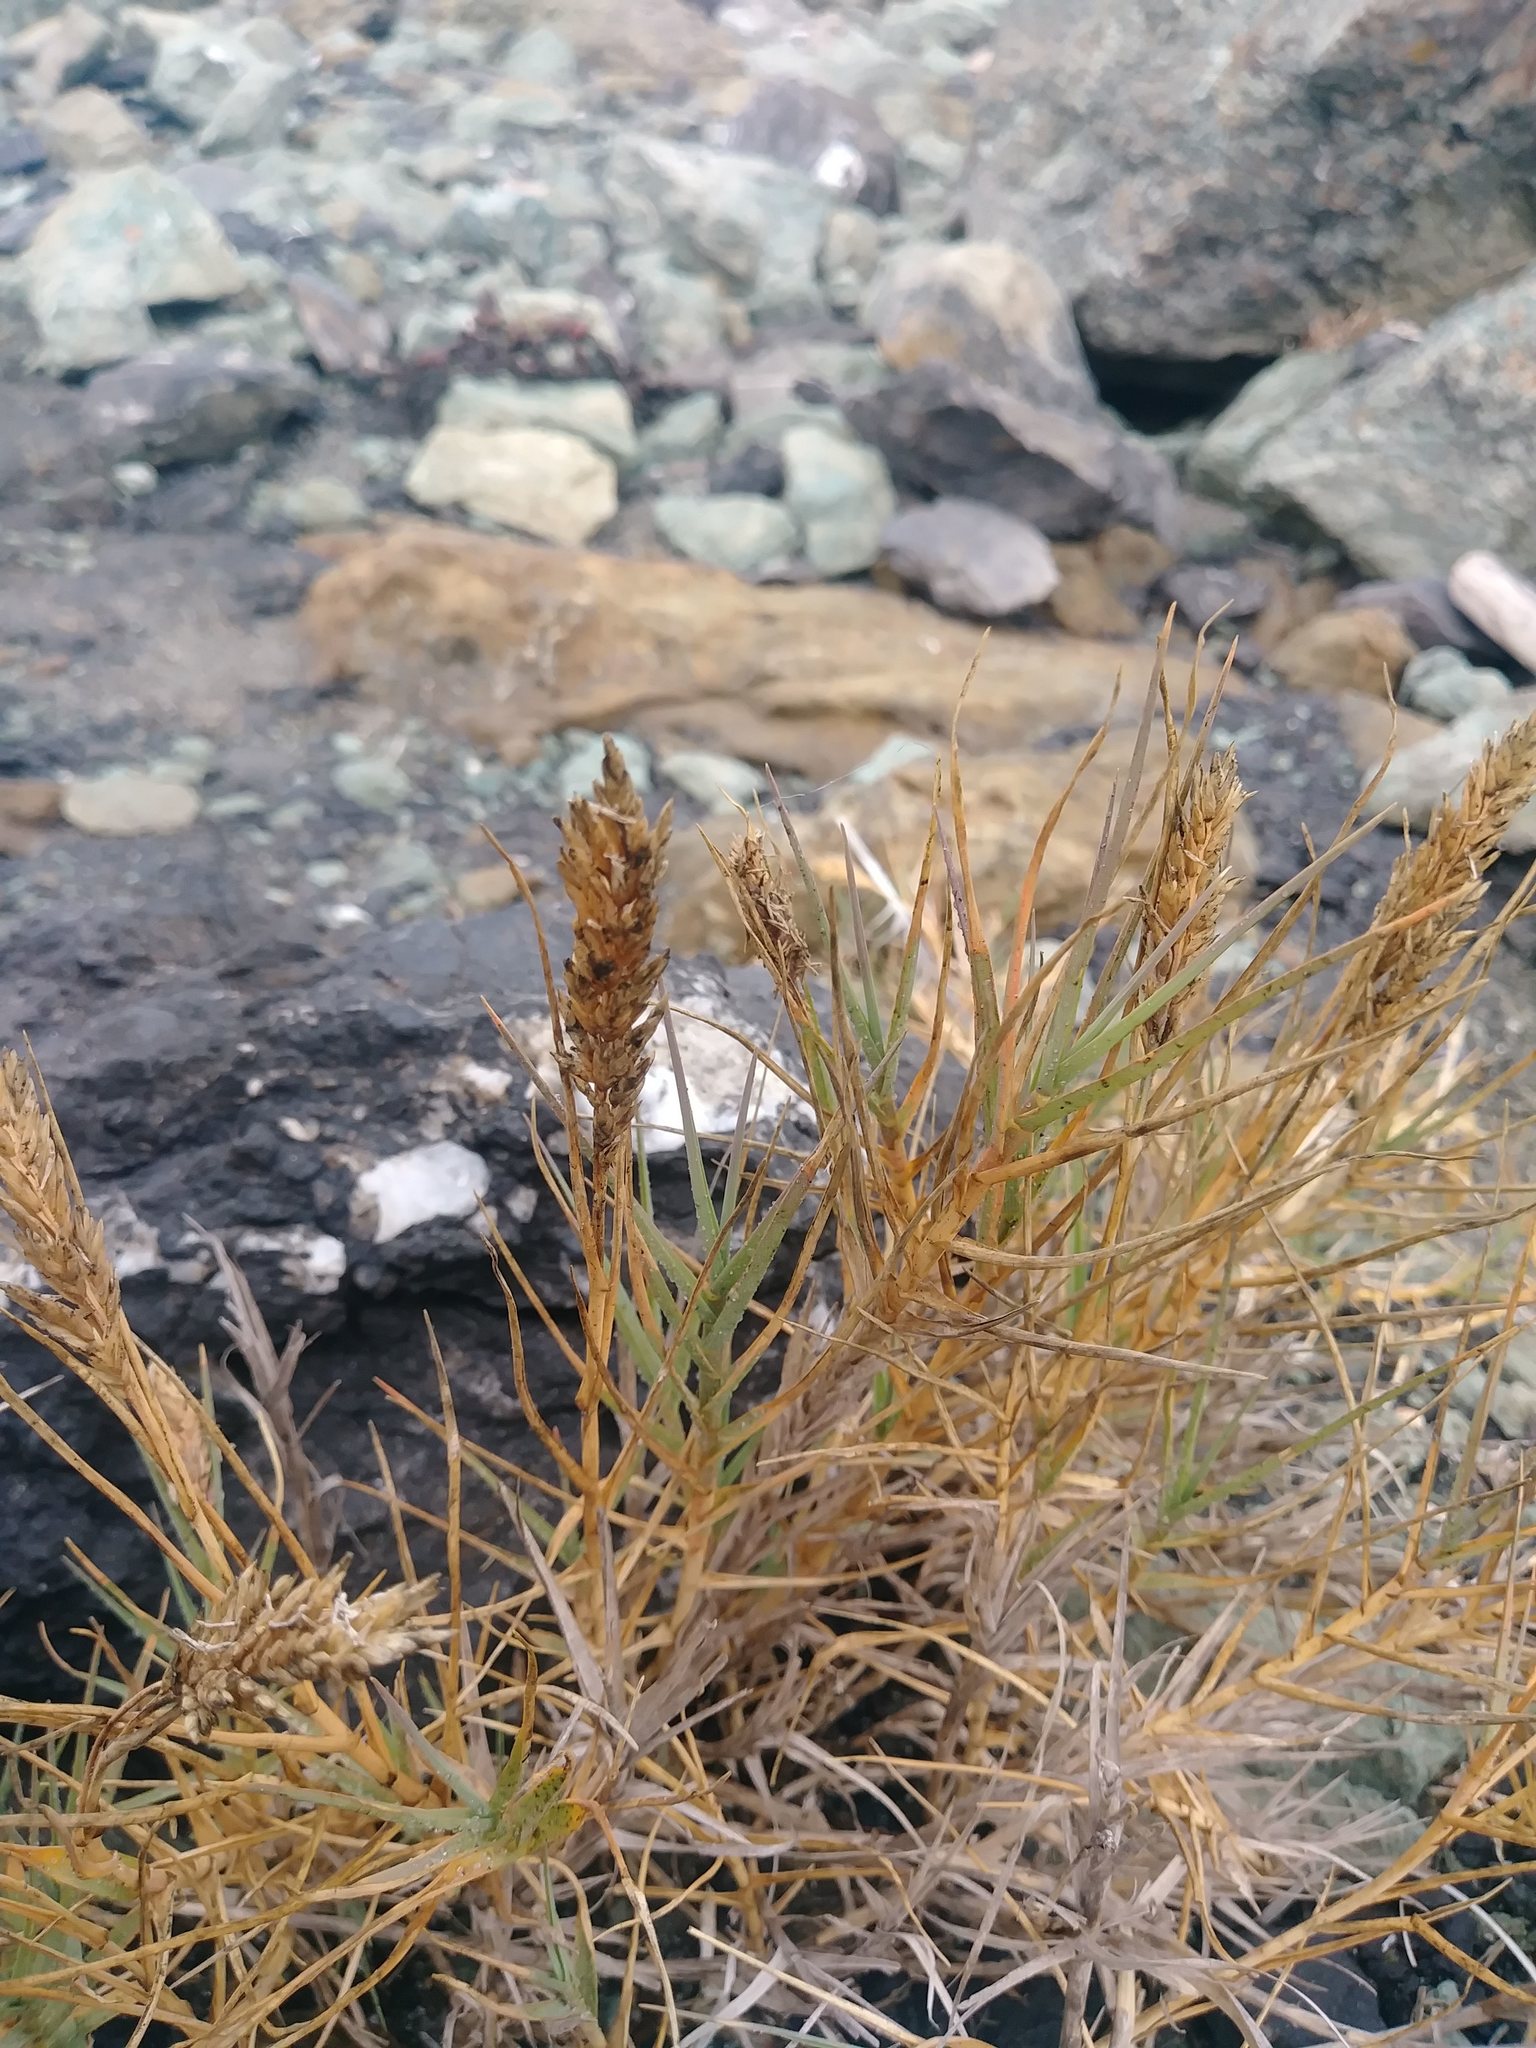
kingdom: Plantae
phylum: Tracheophyta
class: Liliopsida
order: Poales
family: Poaceae
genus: Distichlis
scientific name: Distichlis spicata
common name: Saltgrass
